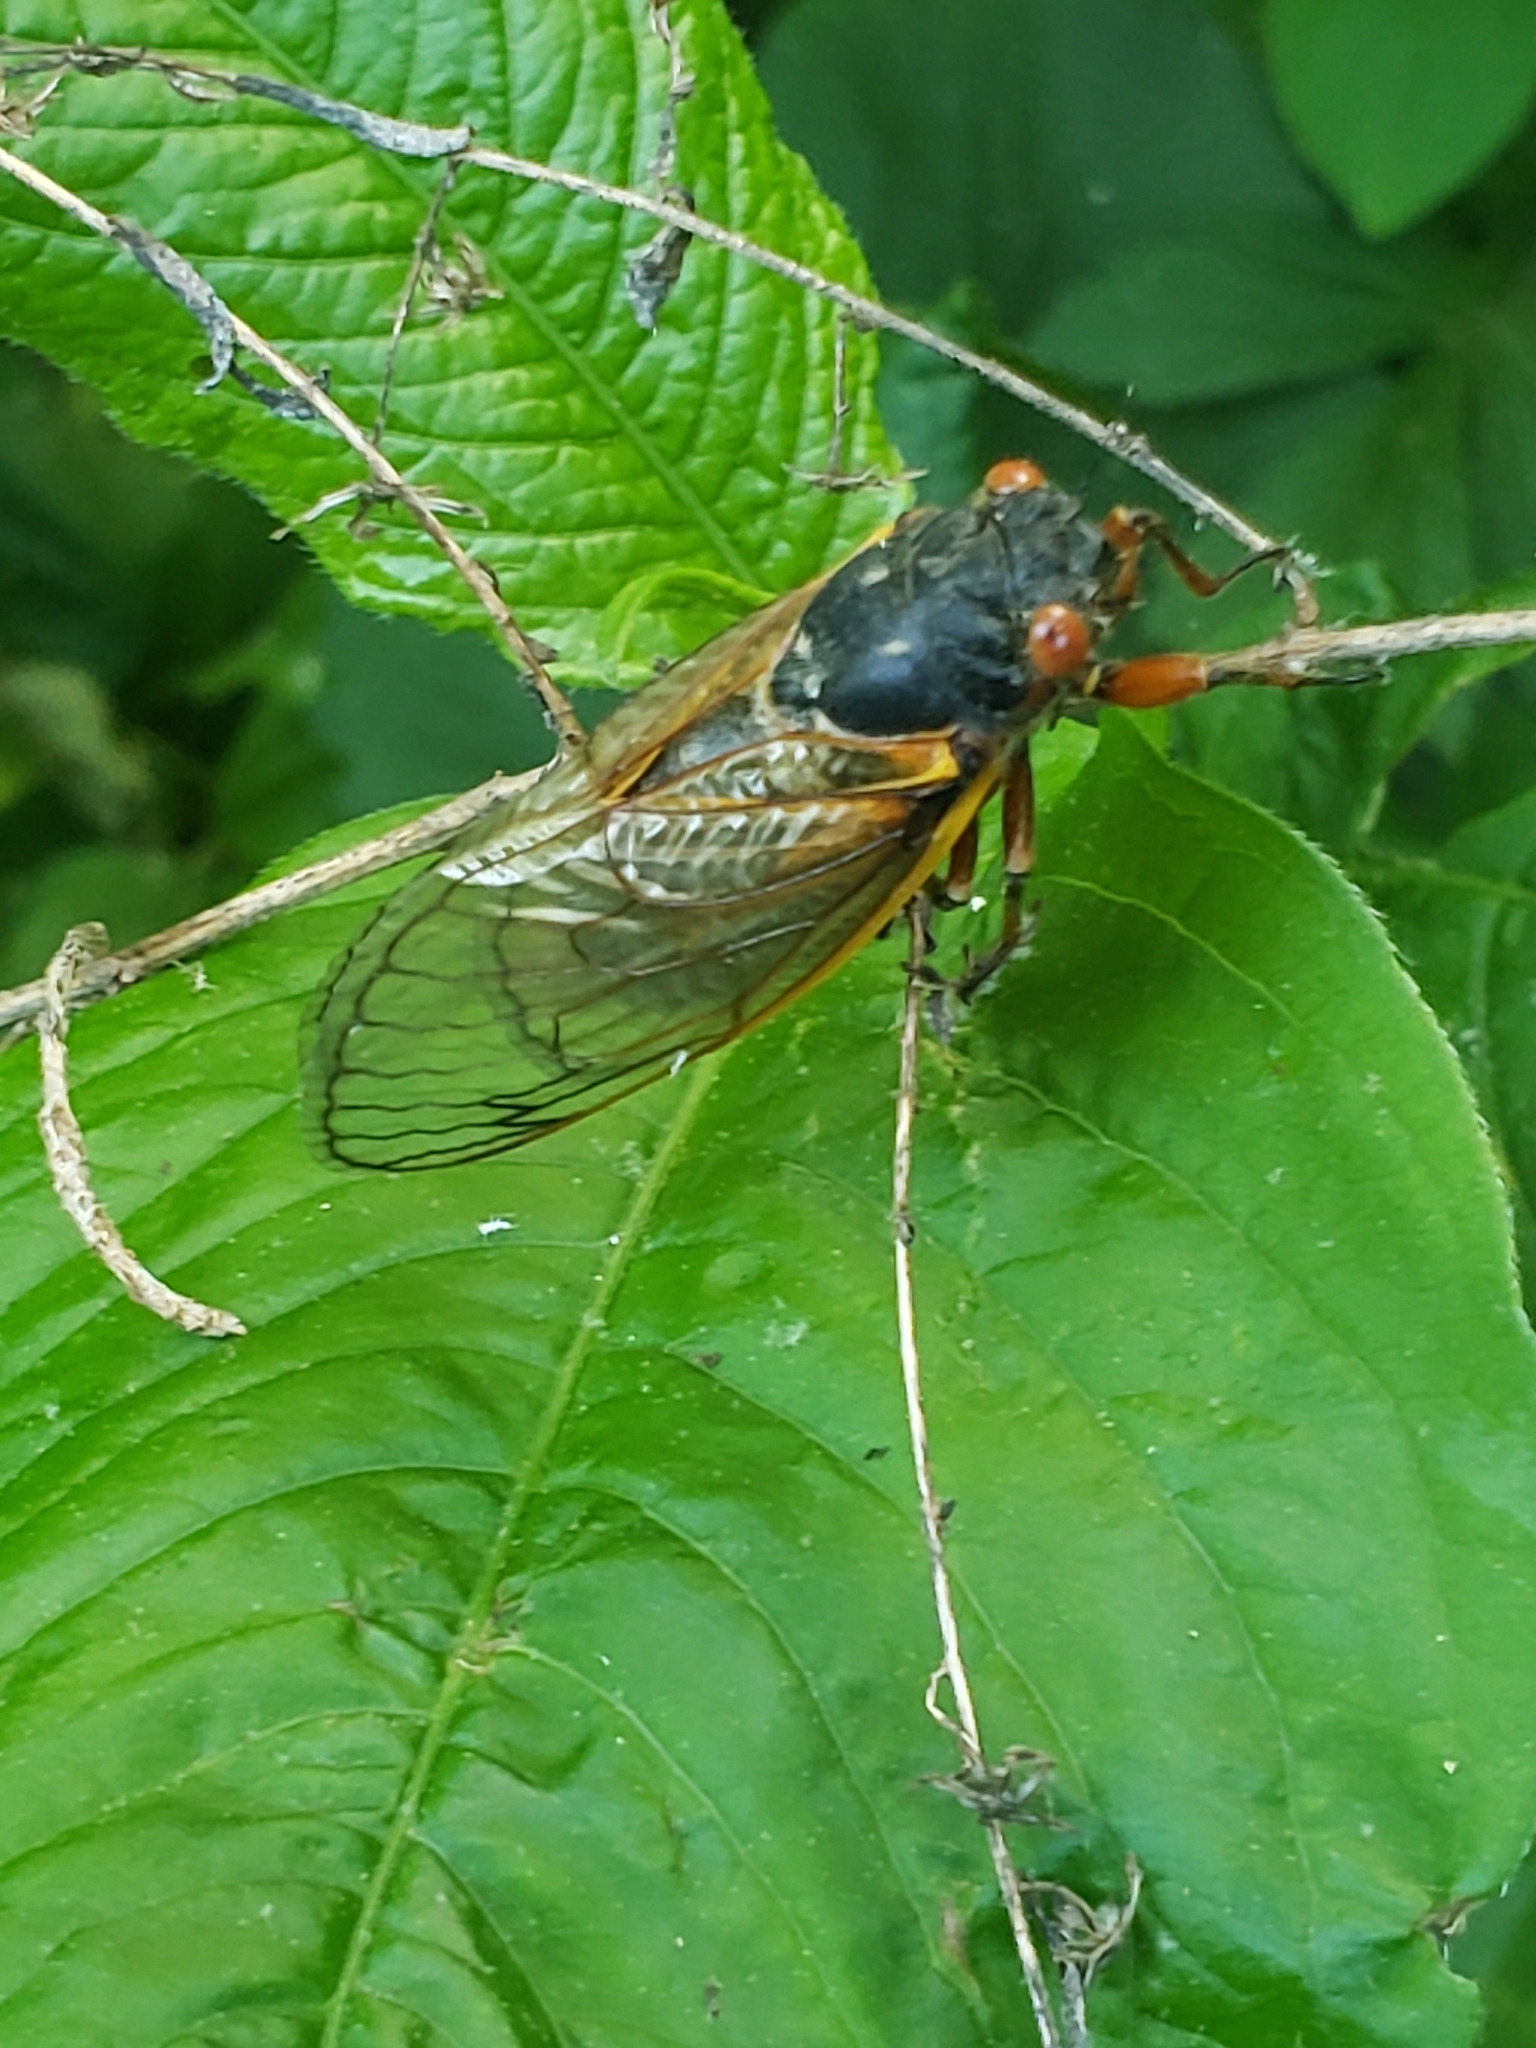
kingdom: Animalia
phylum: Arthropoda
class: Insecta
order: Hemiptera
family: Cicadidae
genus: Magicicada
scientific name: Magicicada septendecim
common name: Periodical cicada
